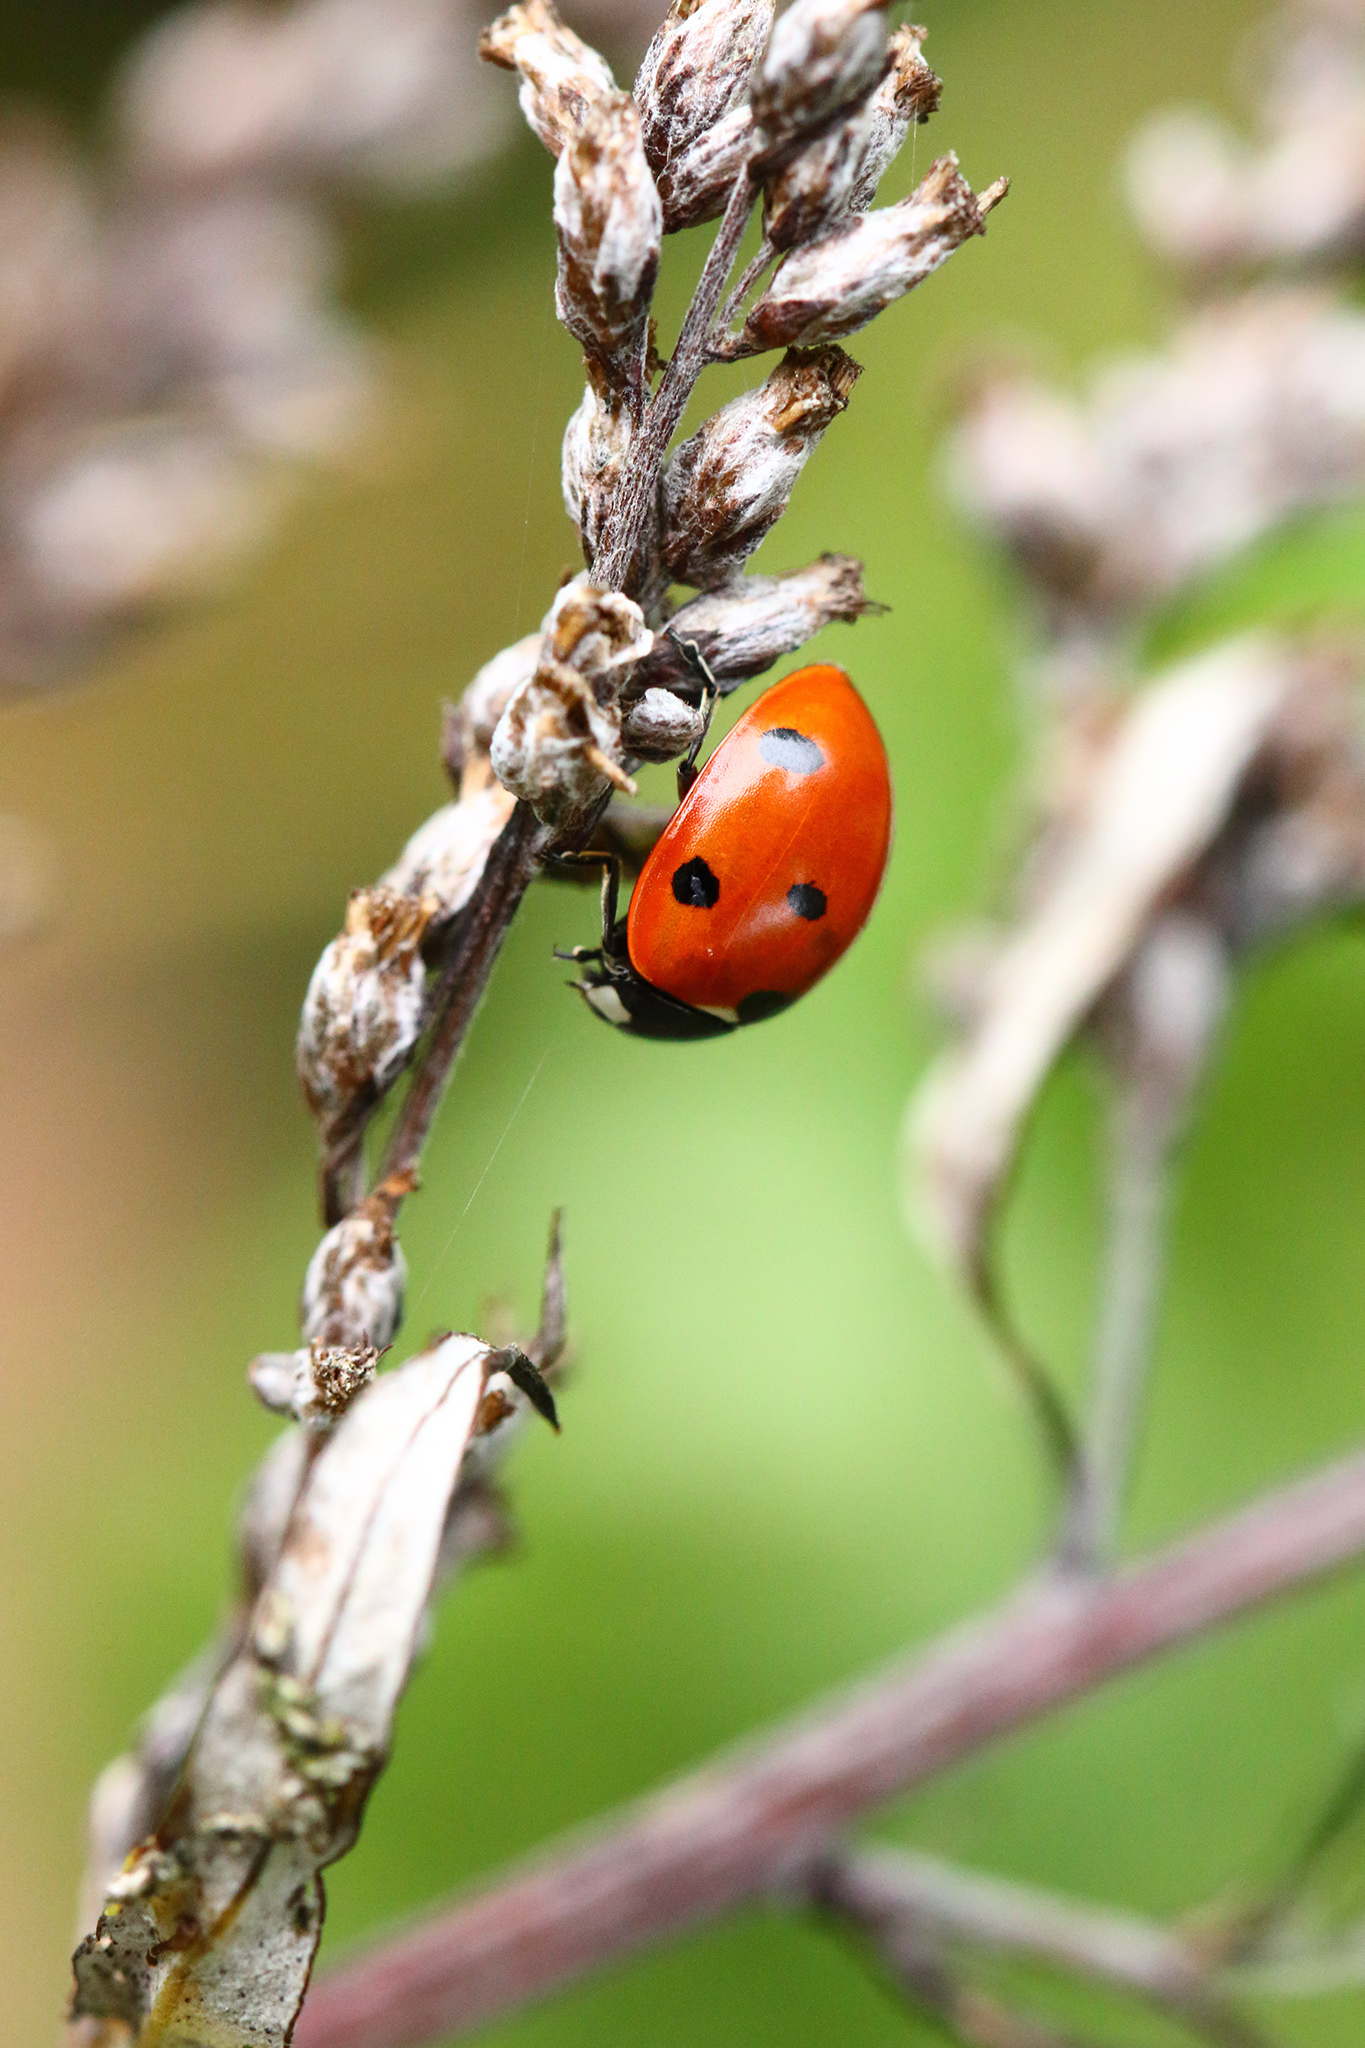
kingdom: Animalia
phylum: Arthropoda
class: Insecta
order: Coleoptera
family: Coccinellidae
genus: Coccinella
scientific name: Coccinella septempunctata
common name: Sevenspotted lady beetle
